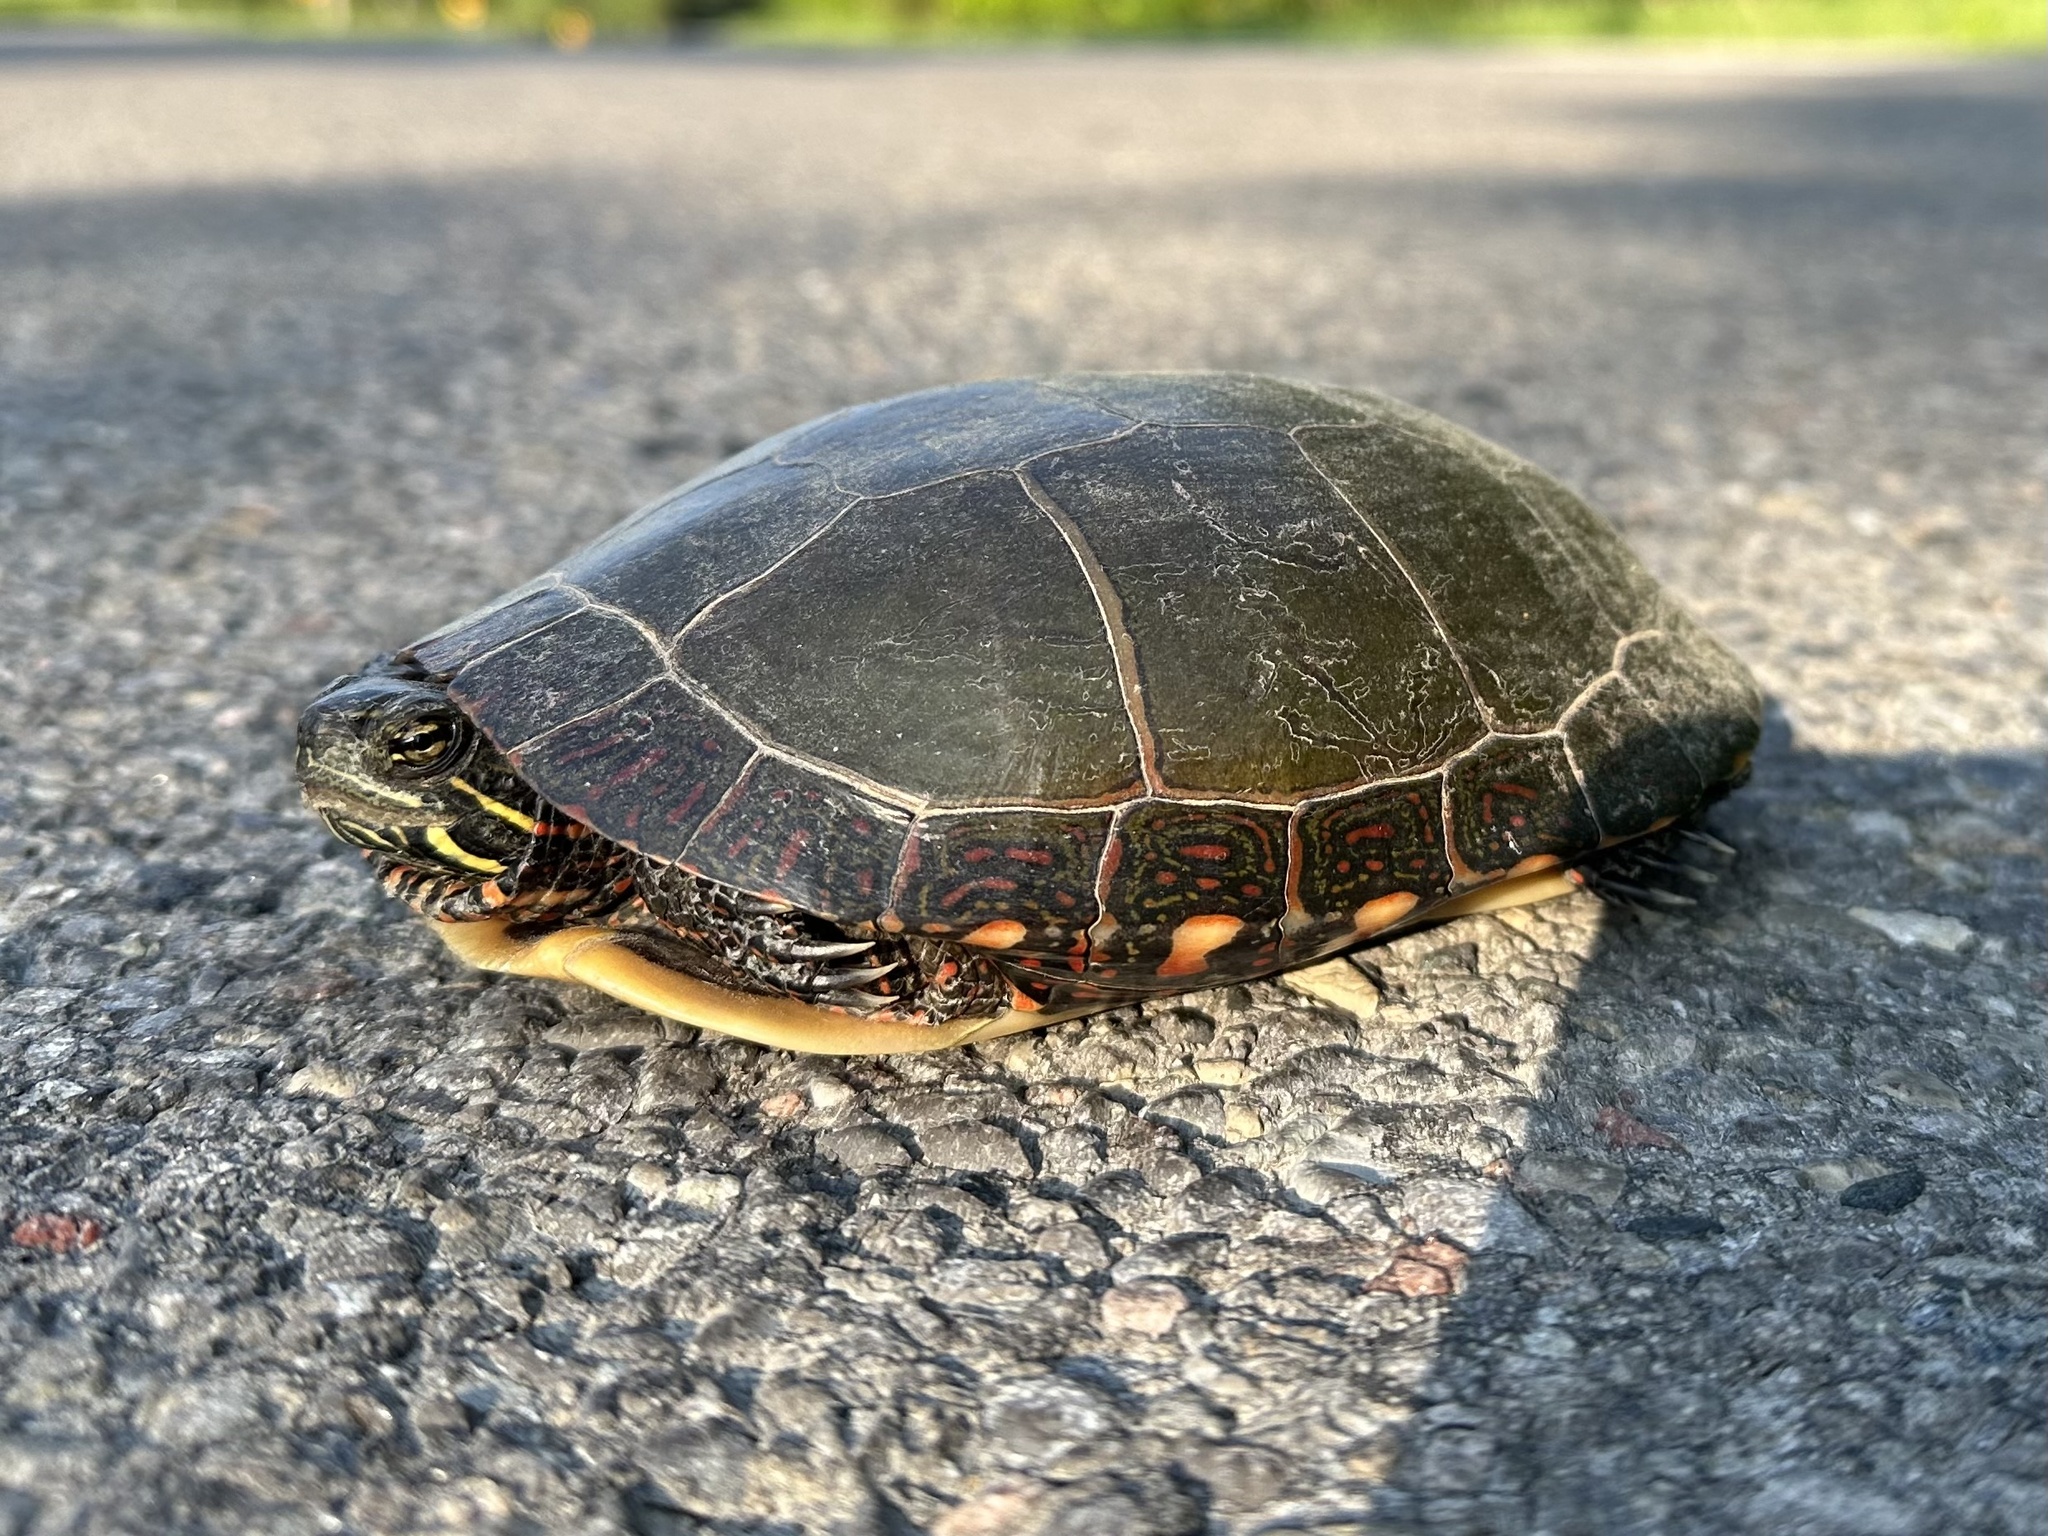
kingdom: Animalia
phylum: Chordata
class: Testudines
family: Emydidae
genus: Chrysemys
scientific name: Chrysemys picta
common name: Painted turtle
